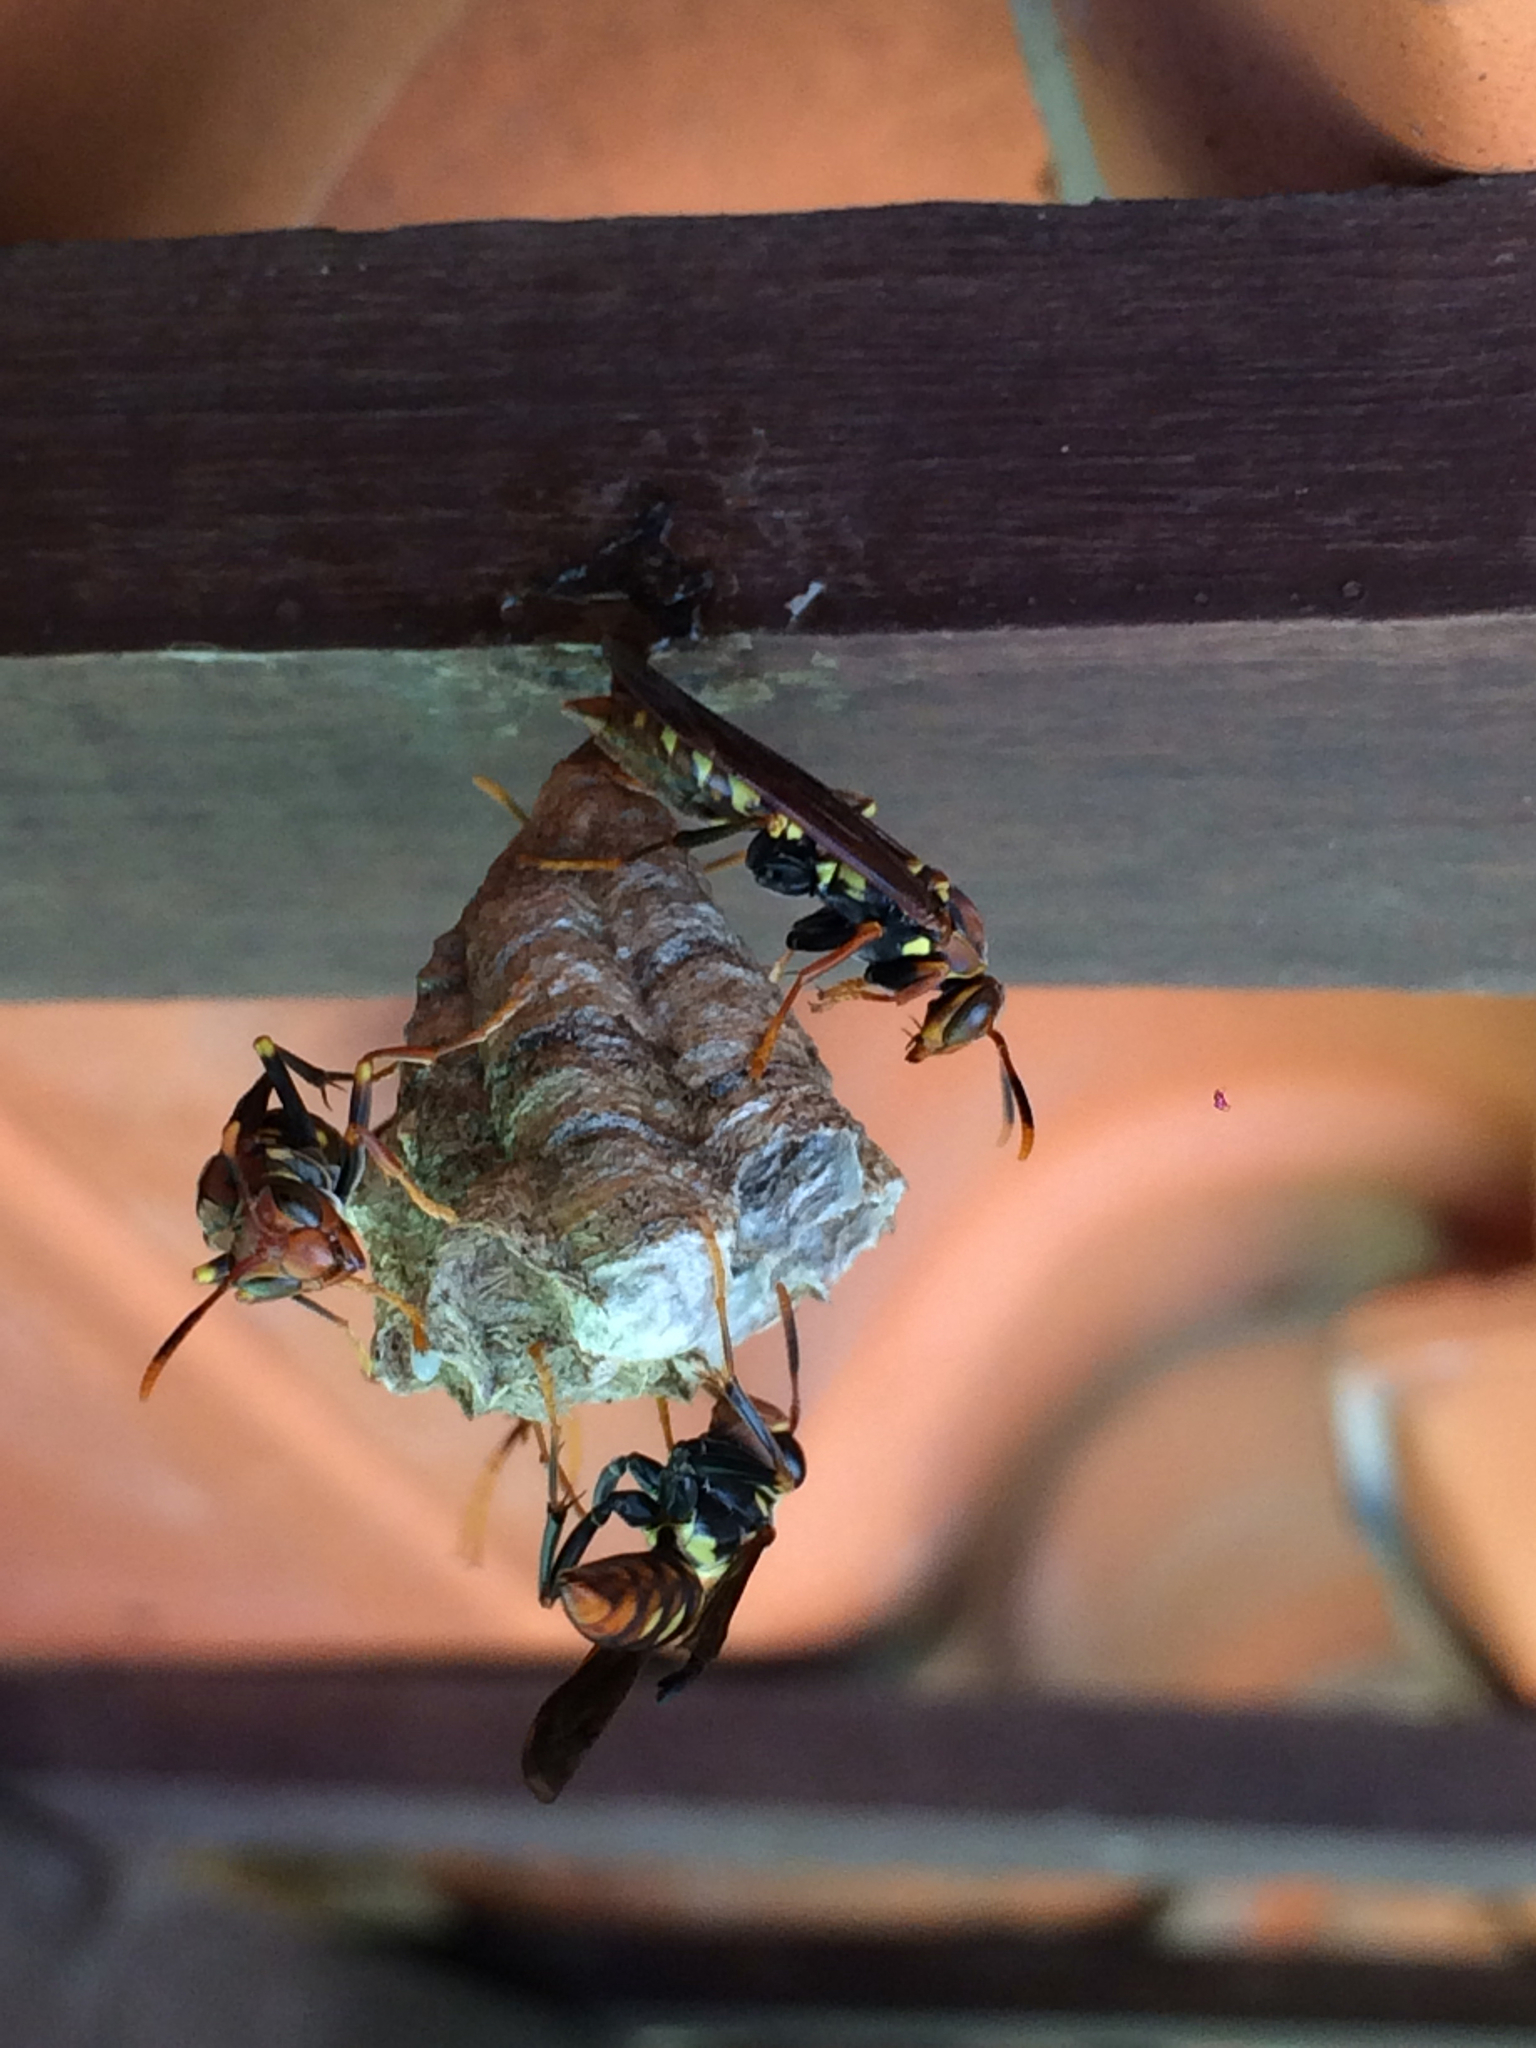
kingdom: Animalia
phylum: Arthropoda
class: Insecta
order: Hymenoptera
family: Eumenidae
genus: Polistes
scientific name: Polistes versicolor
